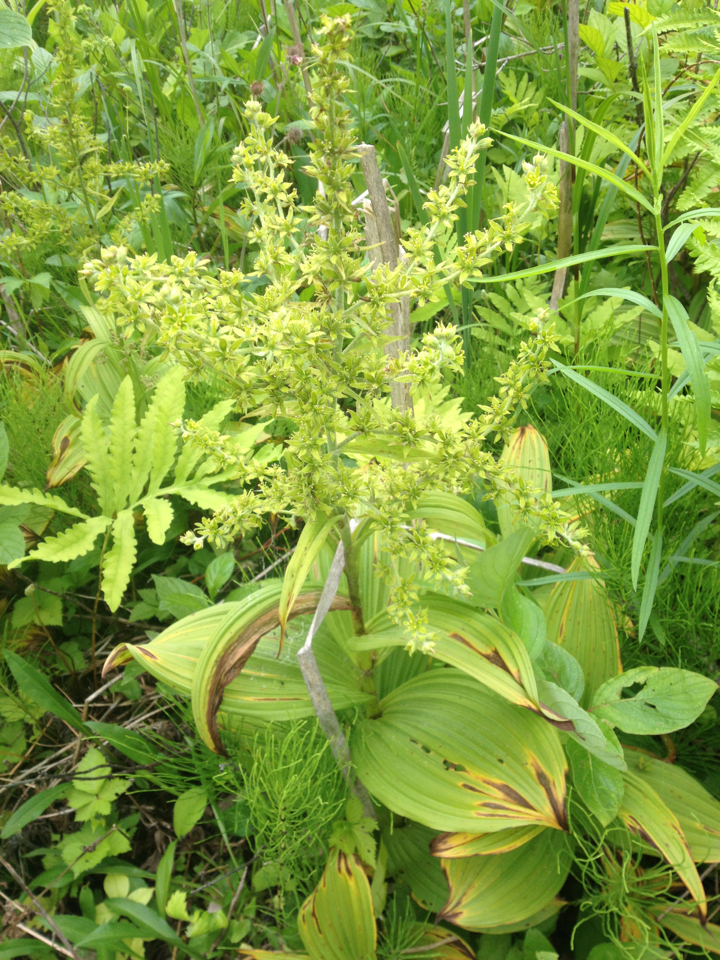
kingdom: Plantae
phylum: Tracheophyta
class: Liliopsida
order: Liliales
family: Melanthiaceae
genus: Veratrum
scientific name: Veratrum viride
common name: American false hellebore
